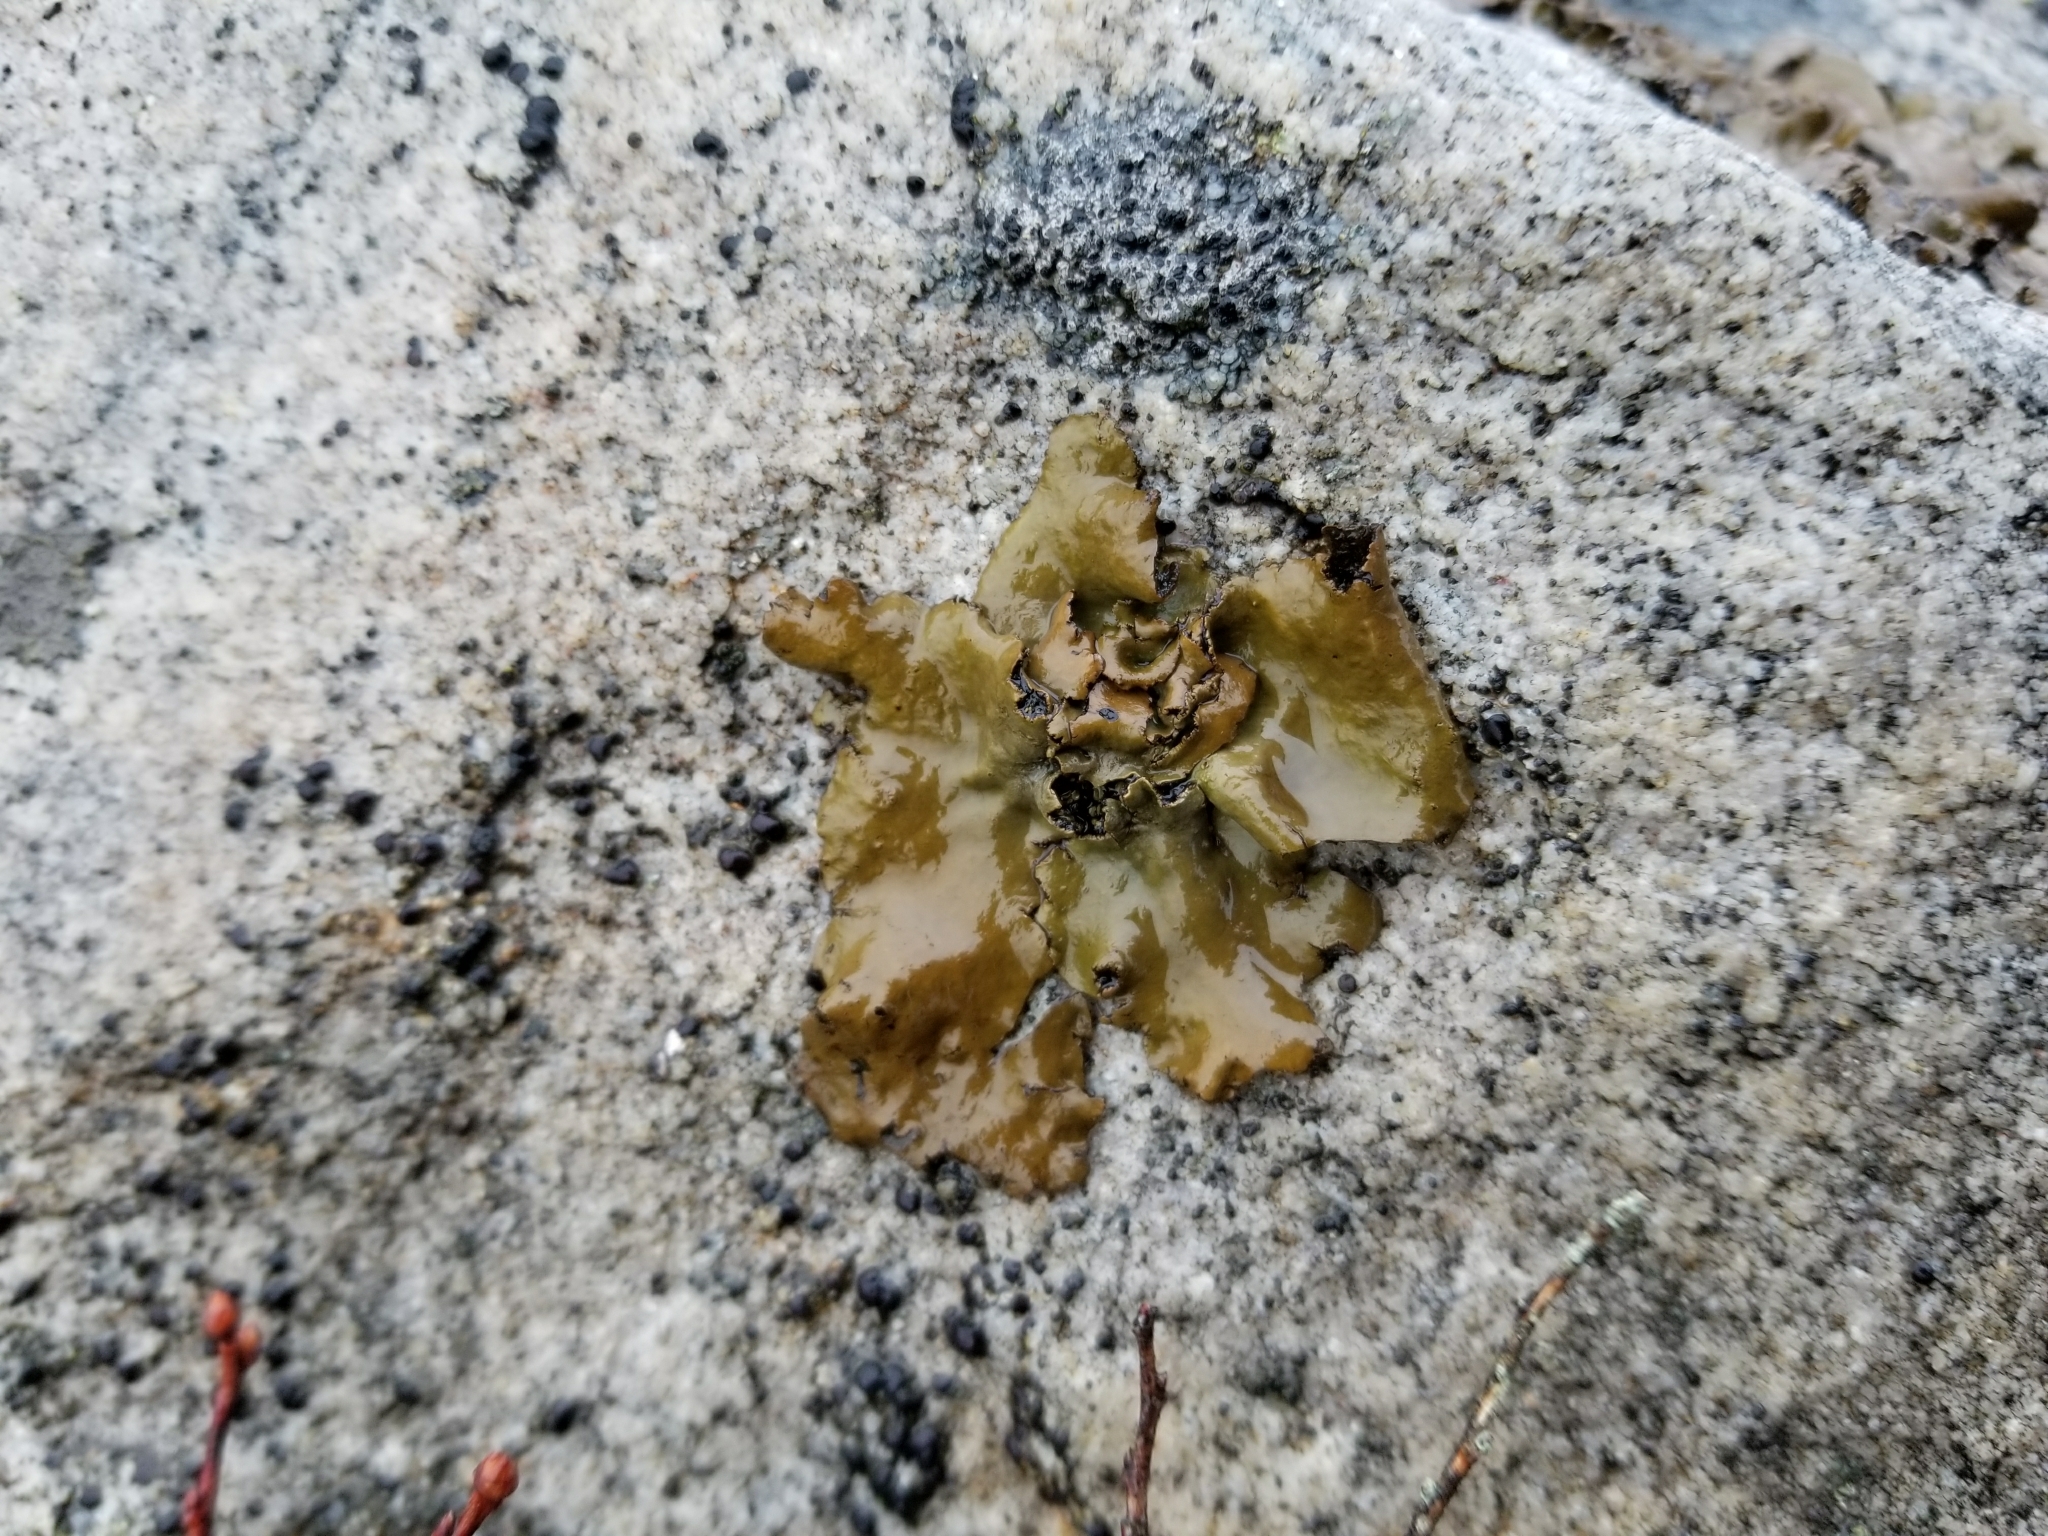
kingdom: Fungi
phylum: Ascomycota
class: Lecanoromycetes
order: Umbilicariales
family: Umbilicariaceae
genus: Umbilicaria
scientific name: Umbilicaria muhlenbergii
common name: Lesser rocktripe
